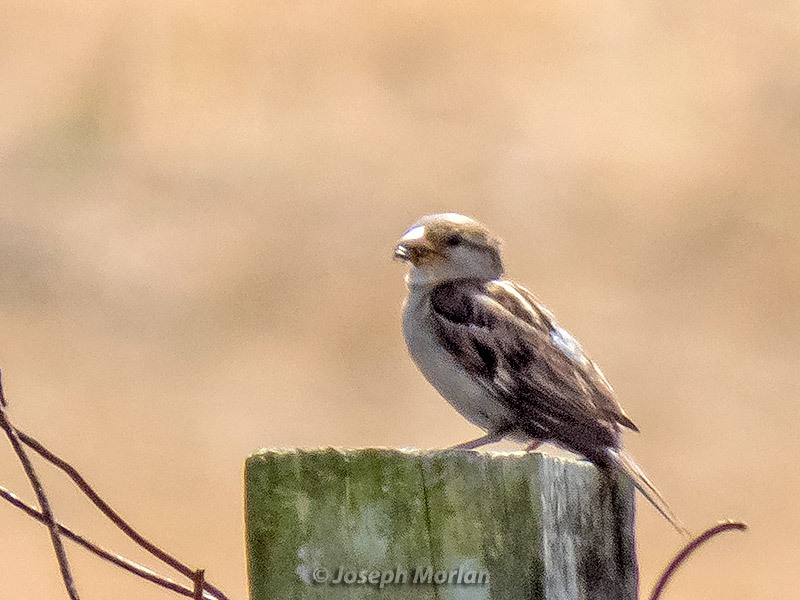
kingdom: Animalia
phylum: Chordata
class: Aves
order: Passeriformes
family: Passeridae
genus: Passer
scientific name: Passer domesticus
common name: House sparrow
